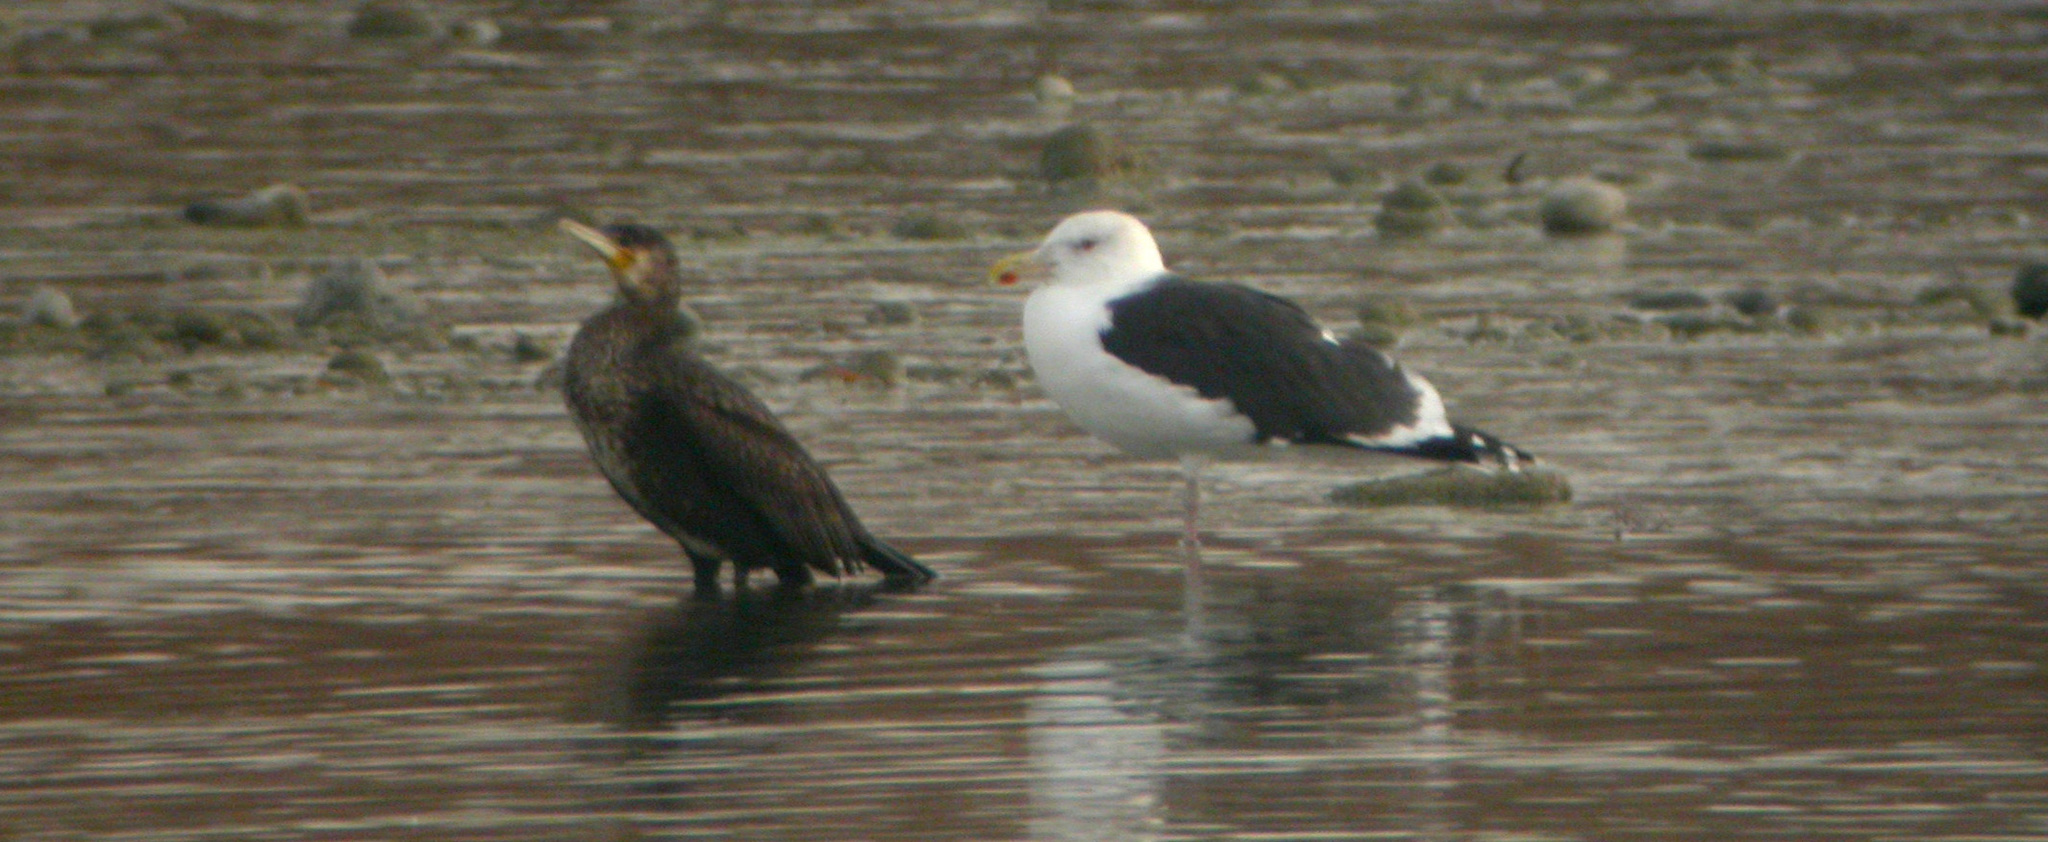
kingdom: Animalia
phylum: Chordata
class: Aves
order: Charadriiformes
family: Laridae
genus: Larus
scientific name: Larus marinus
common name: Great black-backed gull
